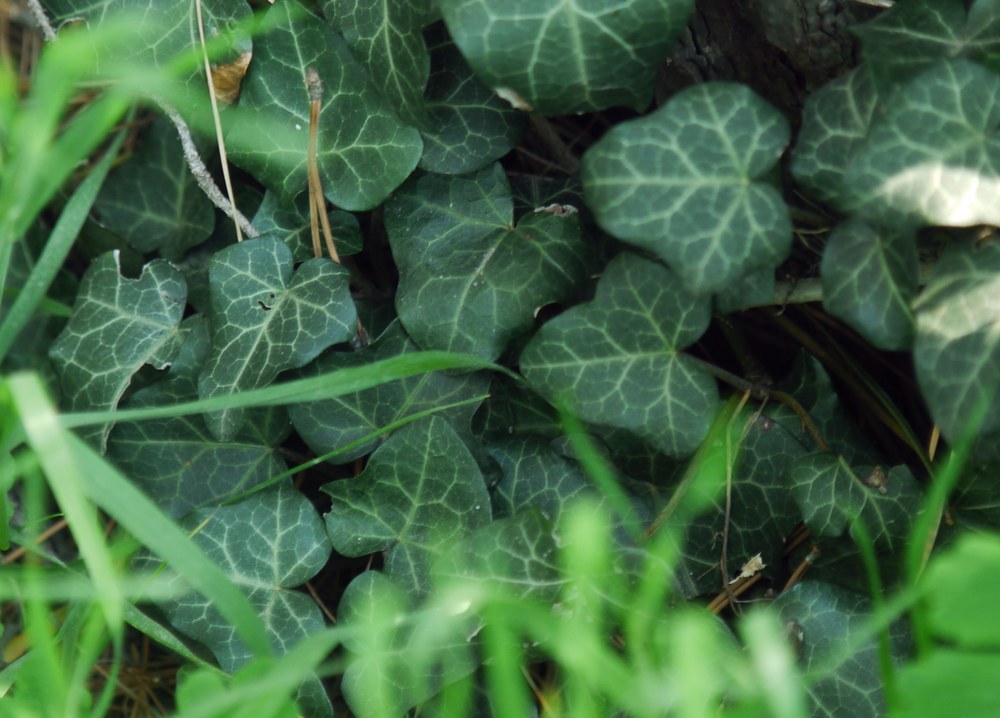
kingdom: Plantae
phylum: Tracheophyta
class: Magnoliopsida
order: Apiales
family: Araliaceae
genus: Hedera
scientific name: Hedera helix
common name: Ivy
